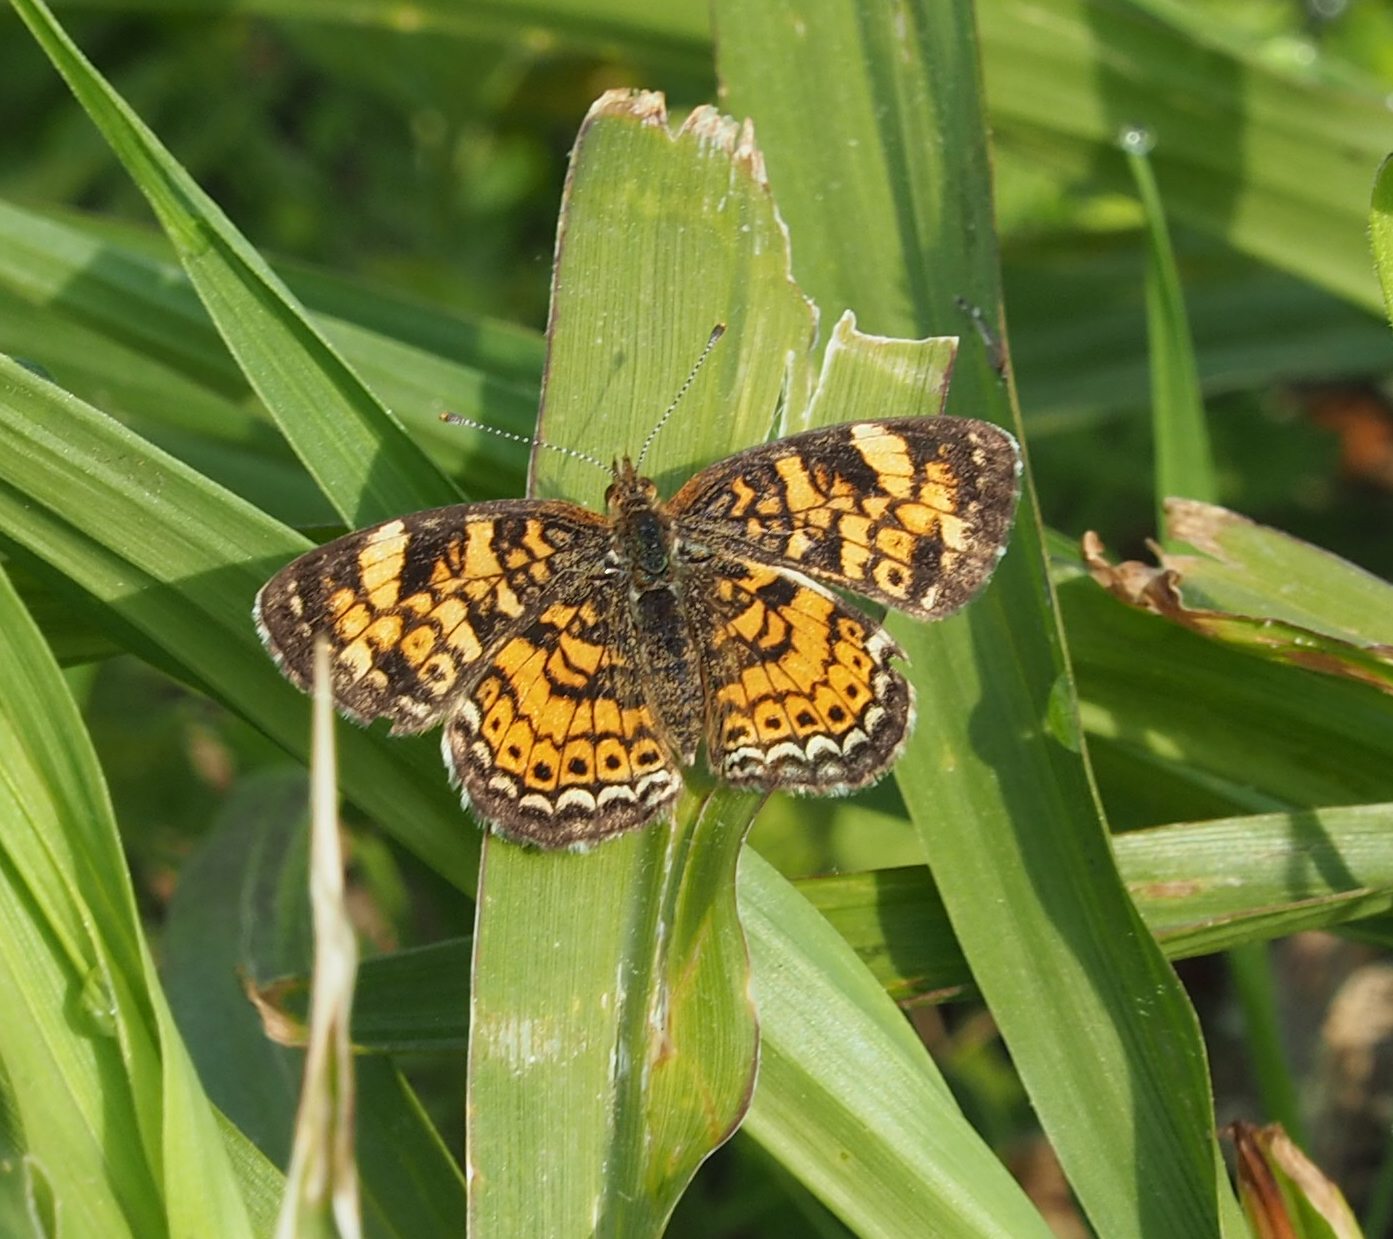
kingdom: Animalia
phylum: Arthropoda
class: Insecta
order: Lepidoptera
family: Nymphalidae
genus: Phyciodes
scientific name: Phyciodes tharos
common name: Pearl crescent
